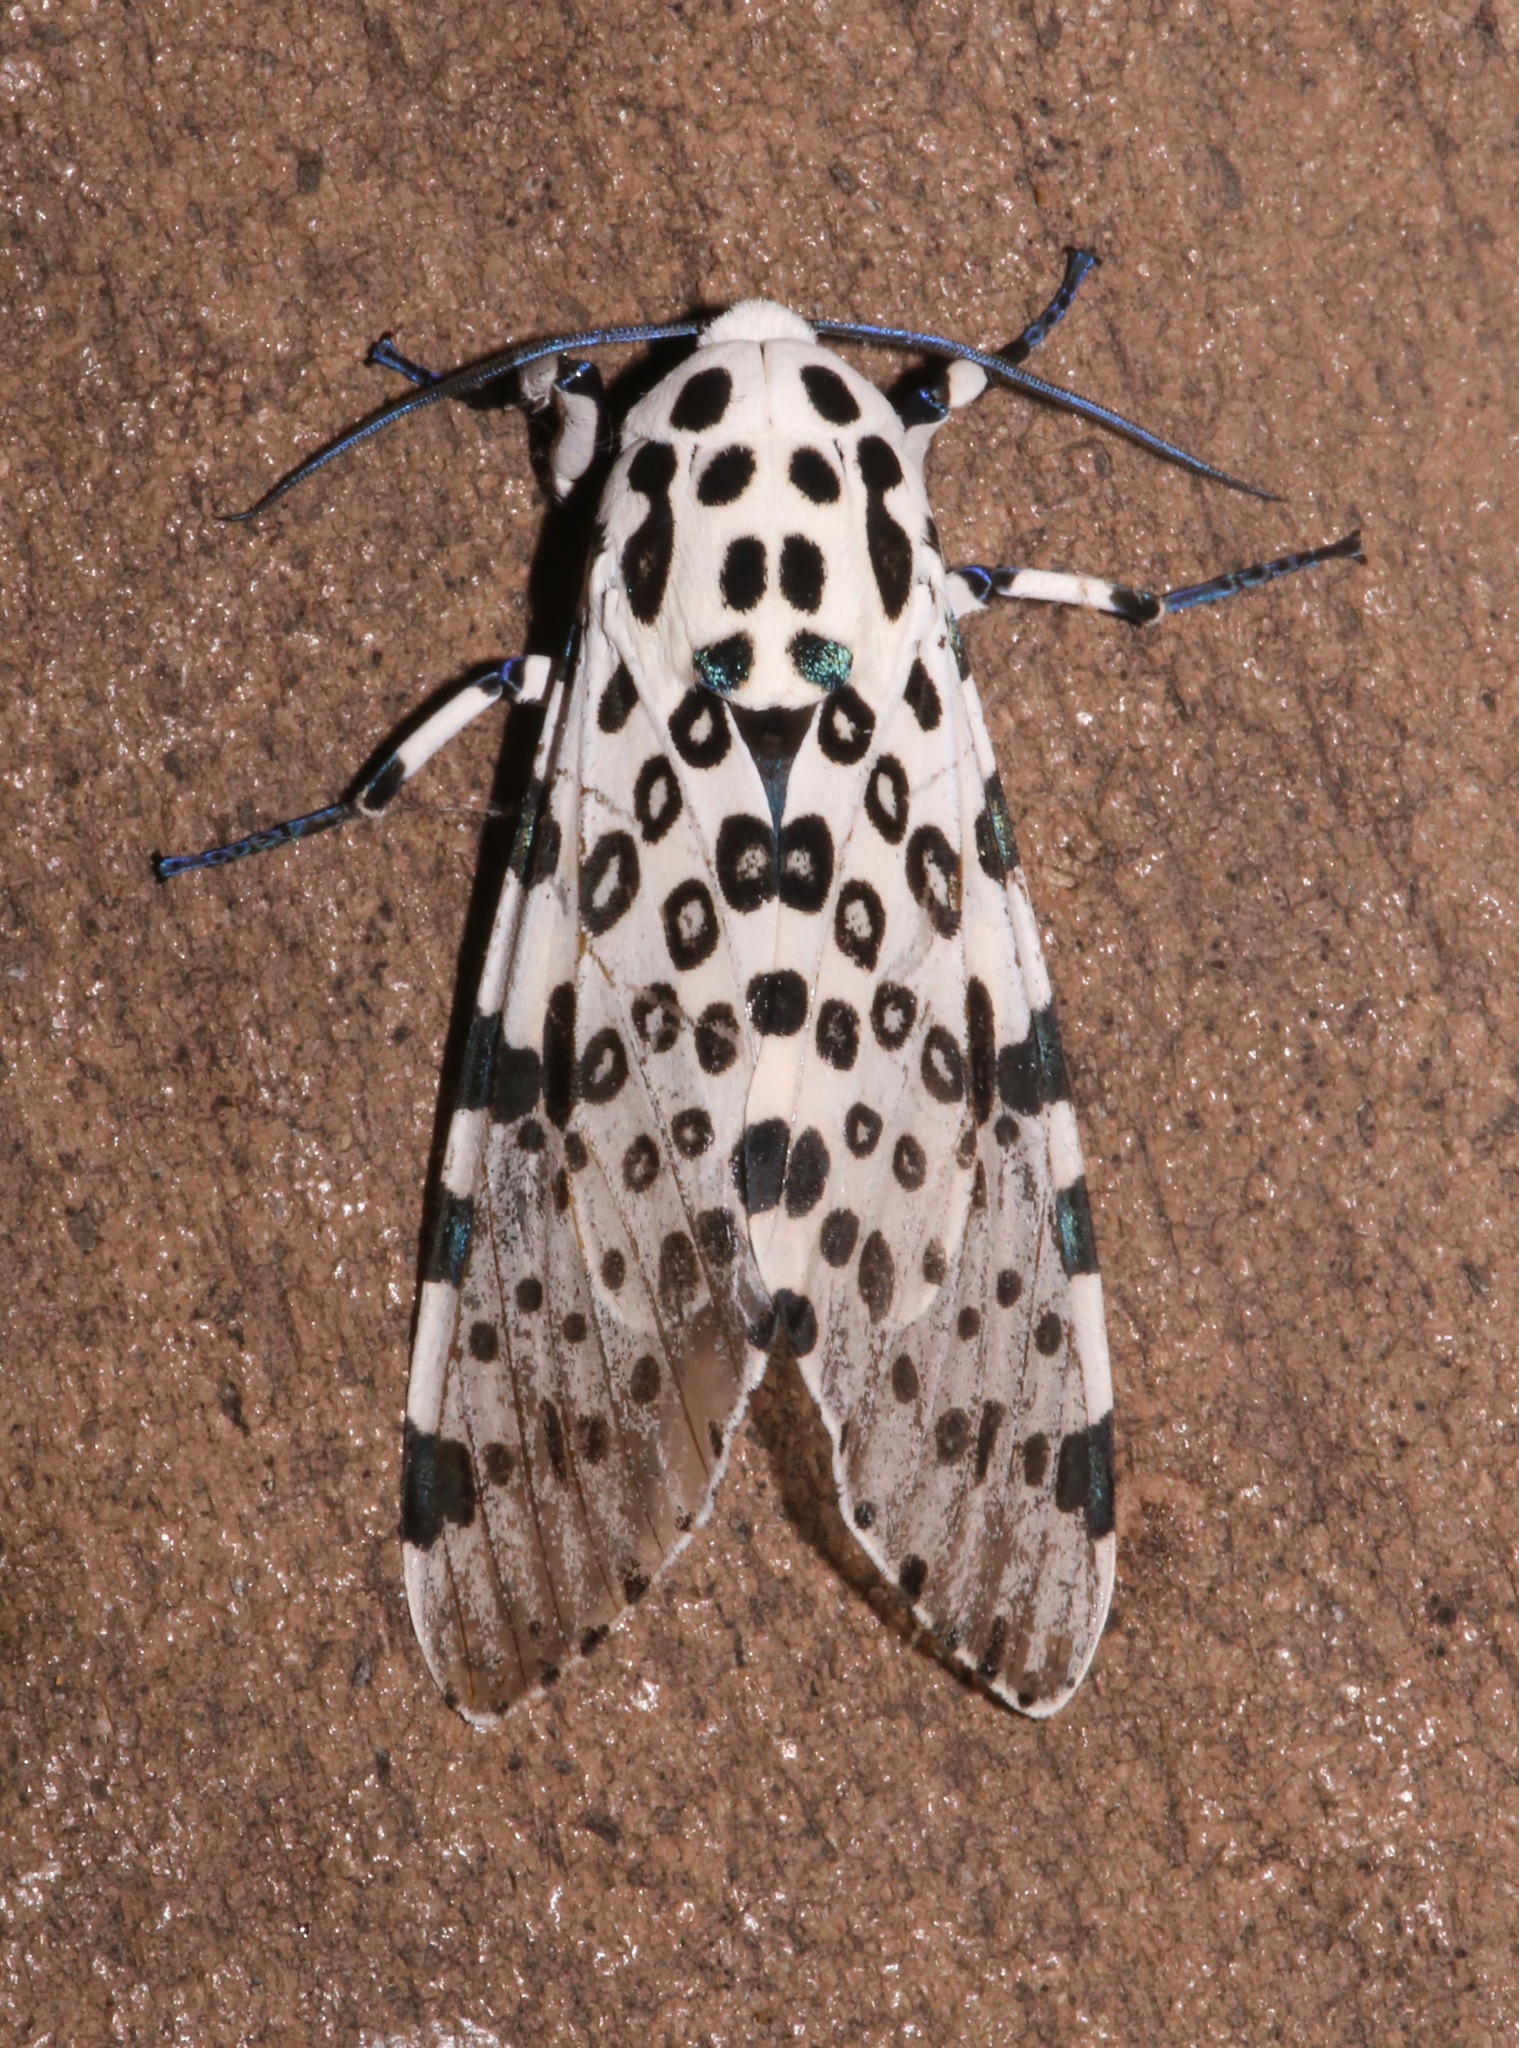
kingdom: Animalia
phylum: Arthropoda
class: Insecta
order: Lepidoptera
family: Erebidae
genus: Hypercompe
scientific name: Hypercompe scribonia
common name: Giant leopard moth
